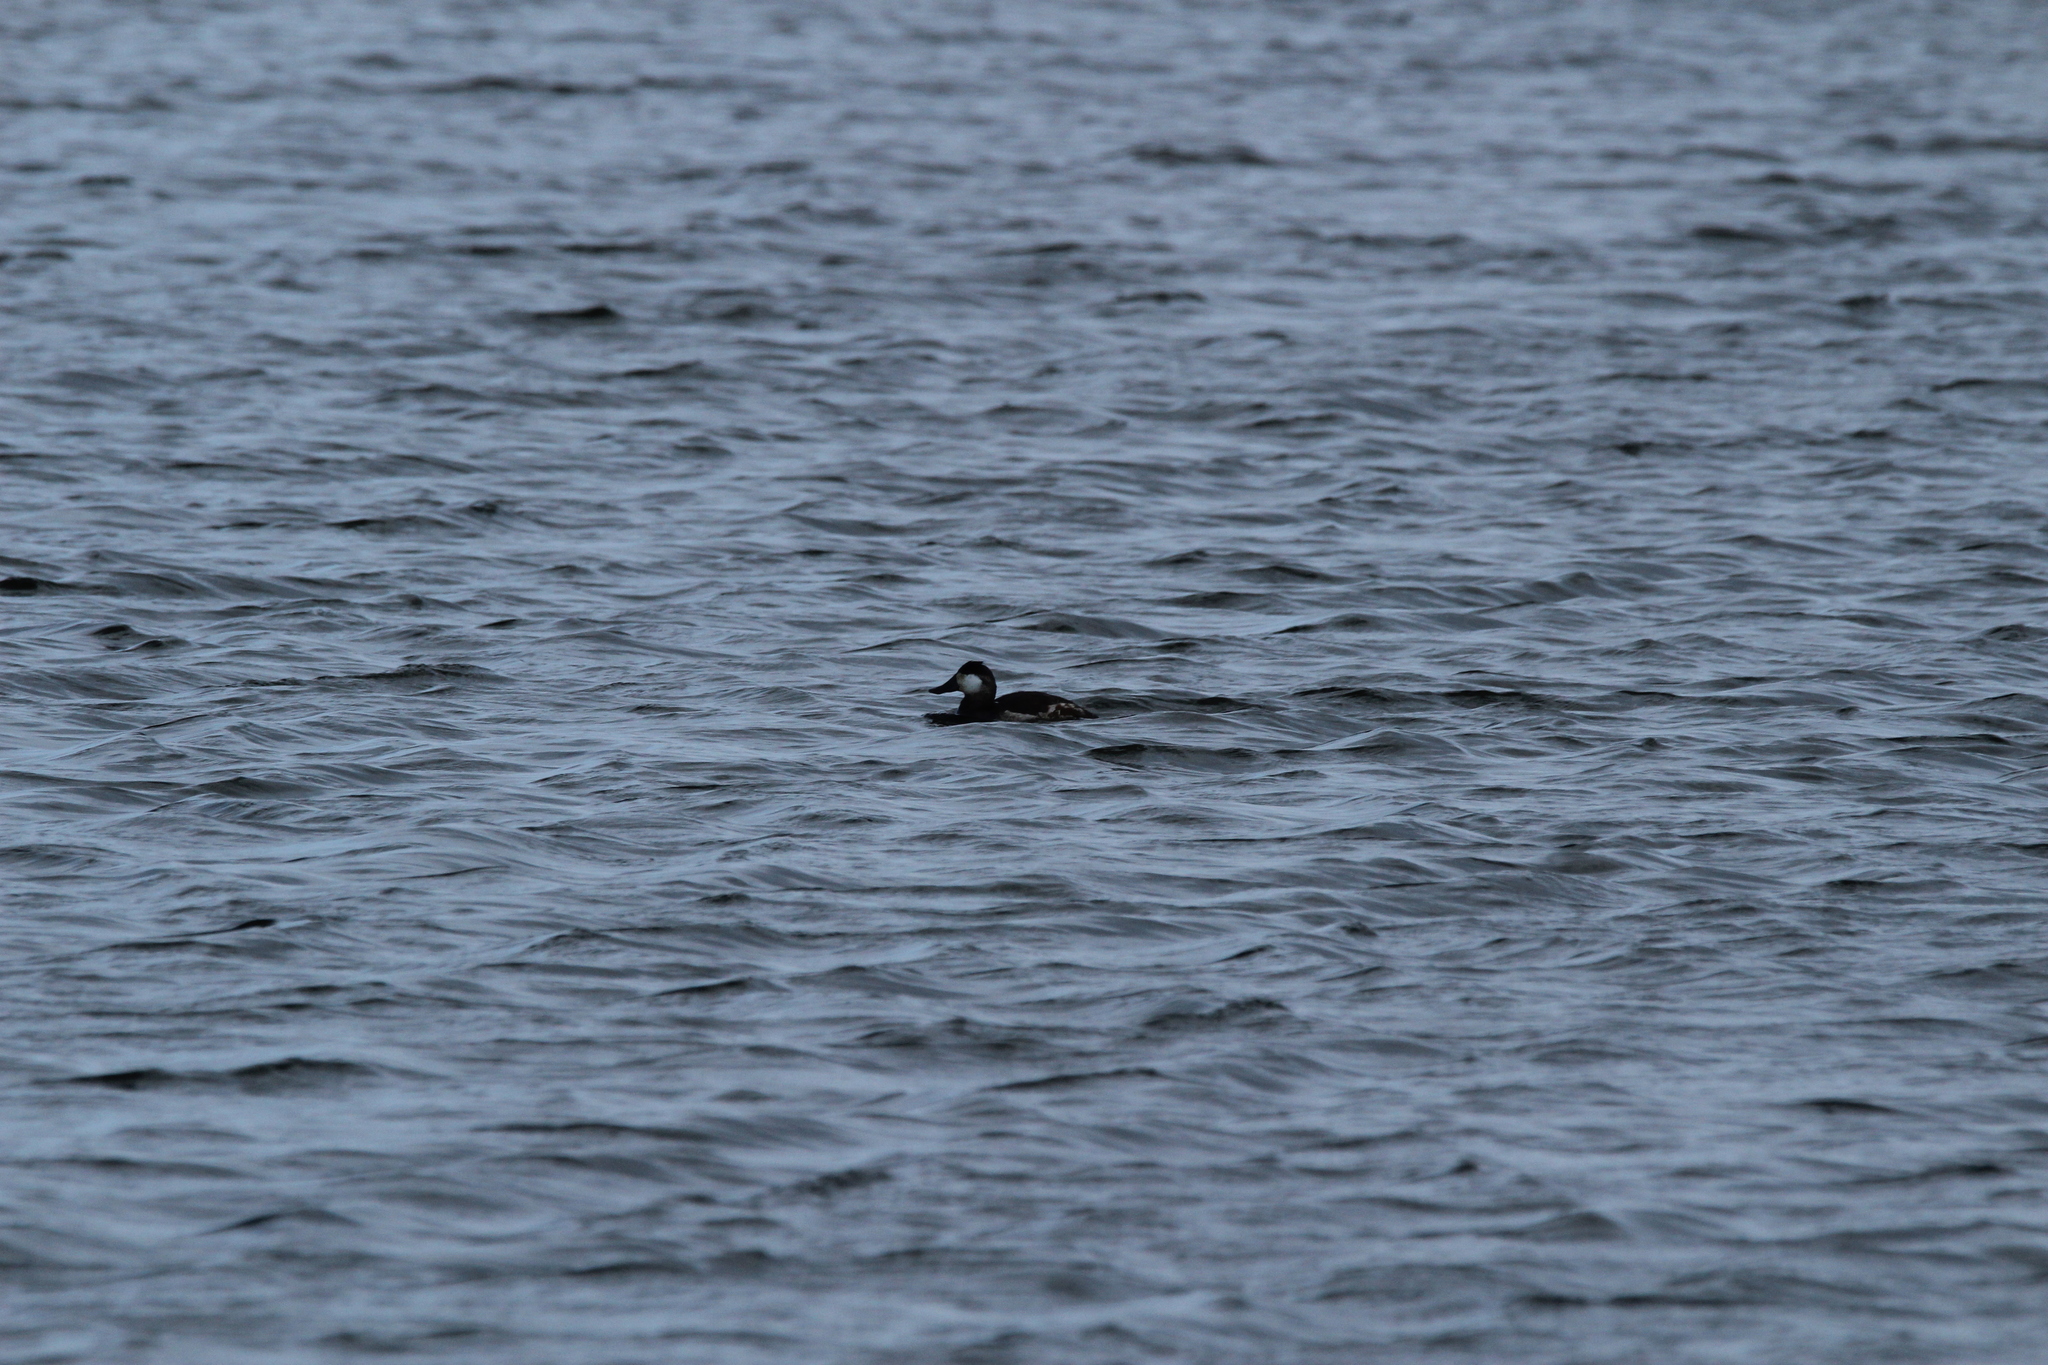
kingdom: Animalia
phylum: Chordata
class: Aves
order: Anseriformes
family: Anatidae
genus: Oxyura
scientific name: Oxyura jamaicensis
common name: Ruddy duck
